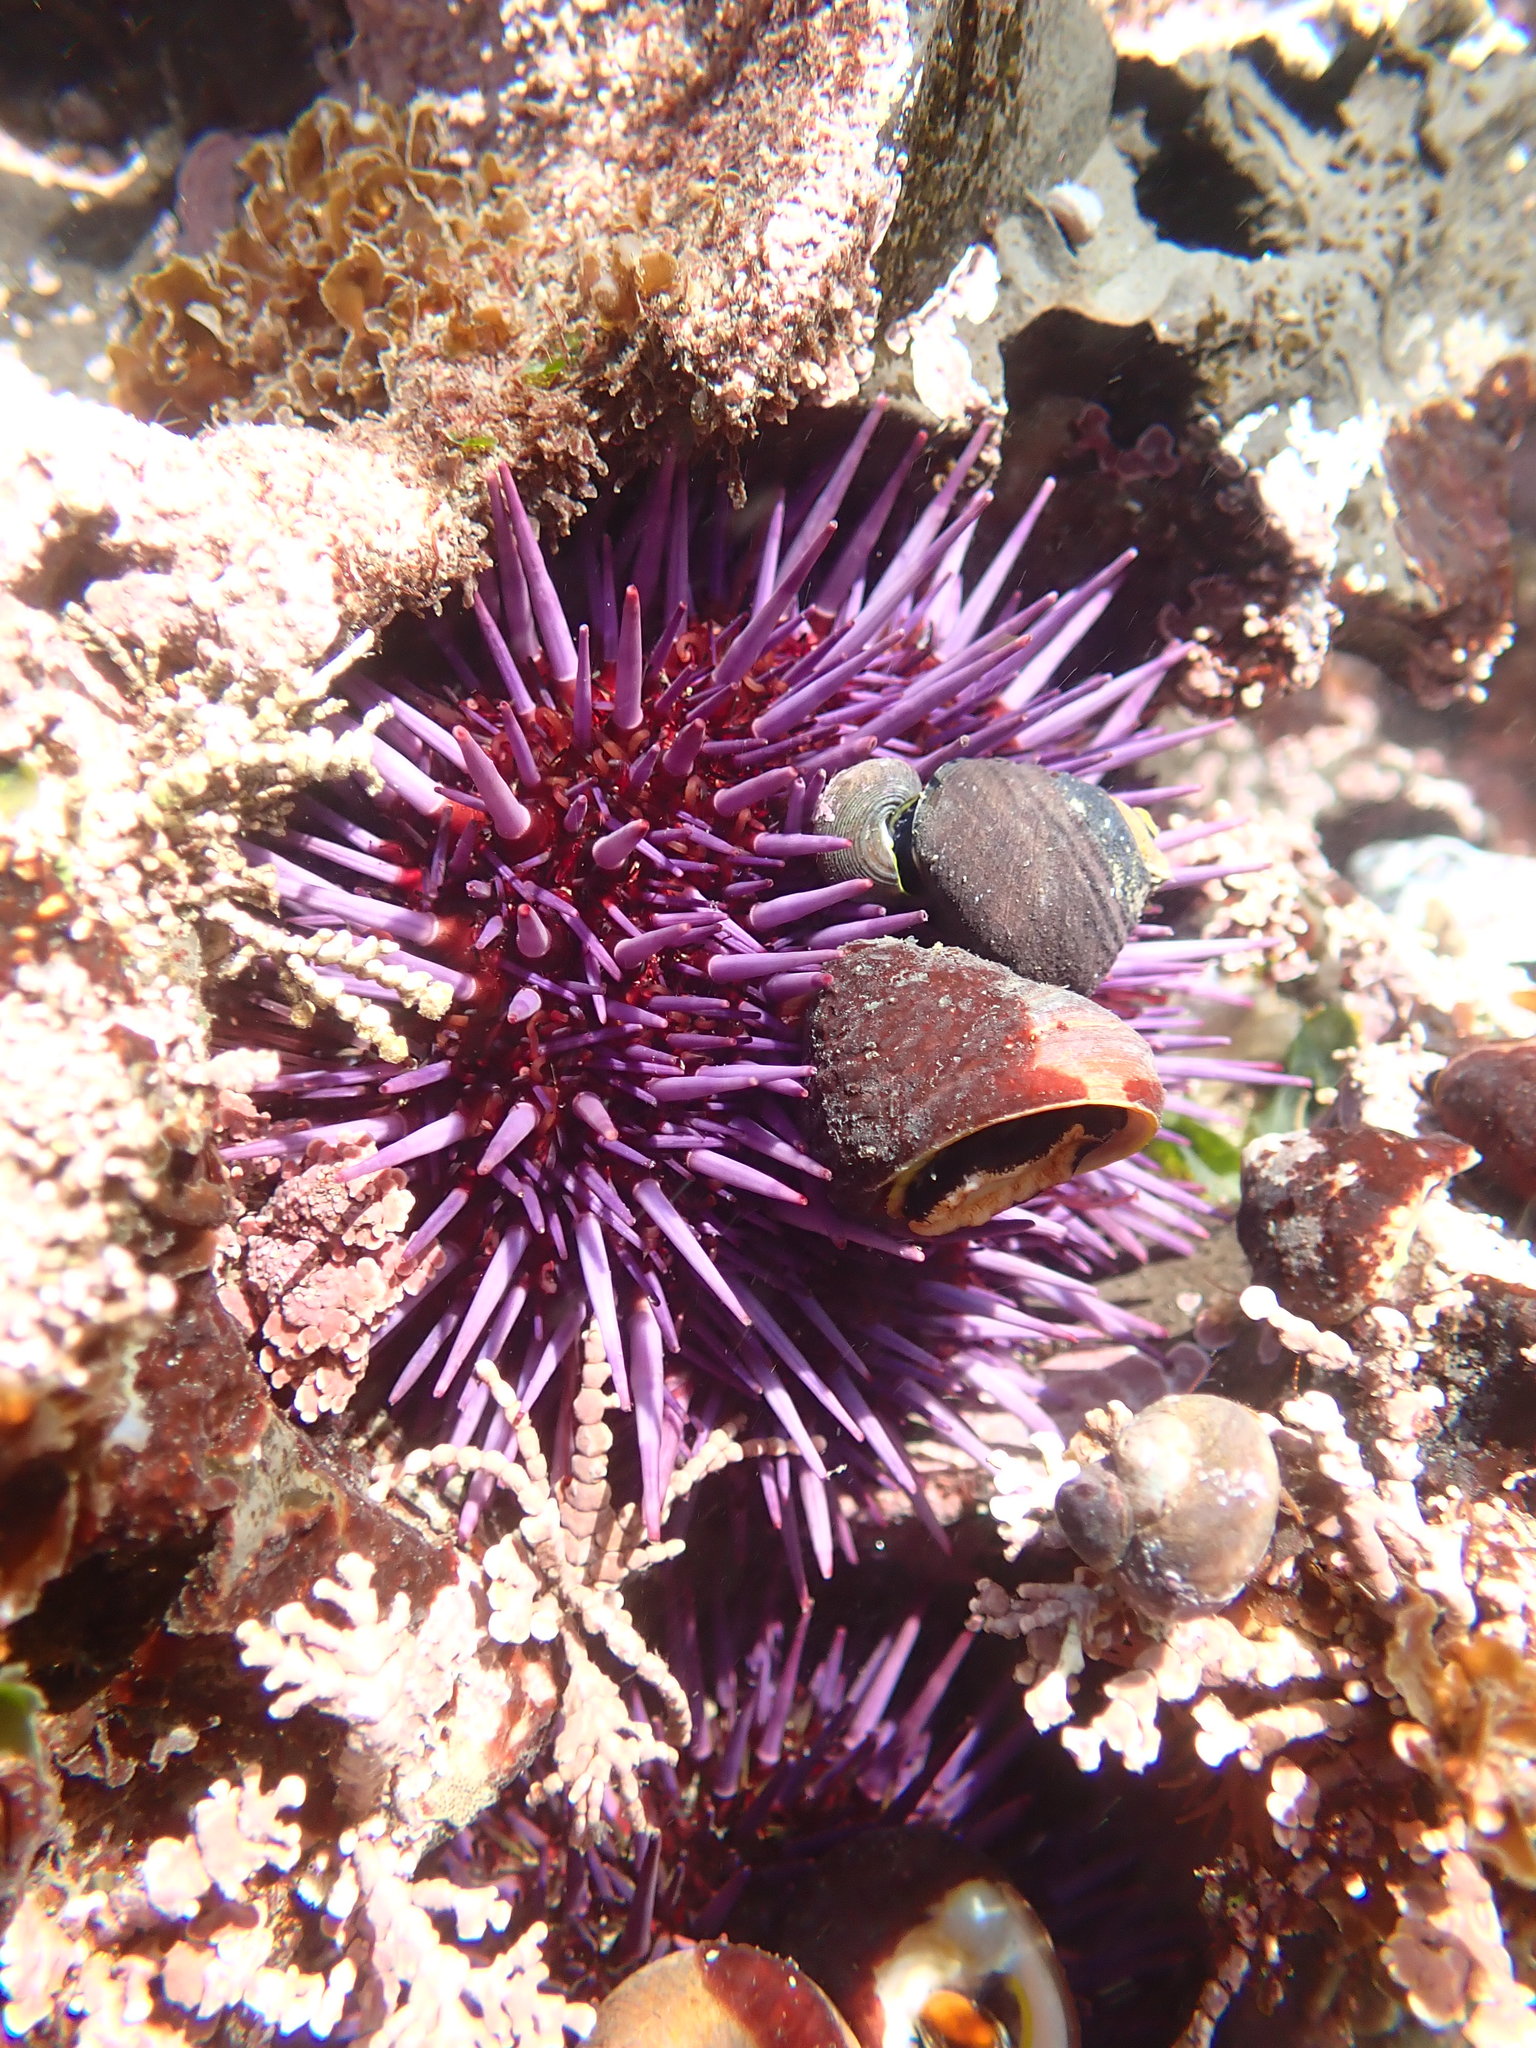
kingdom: Animalia
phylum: Echinodermata
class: Echinoidea
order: Camarodonta
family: Strongylocentrotidae
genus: Strongylocentrotus
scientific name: Strongylocentrotus purpuratus
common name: Purple sea urchin
